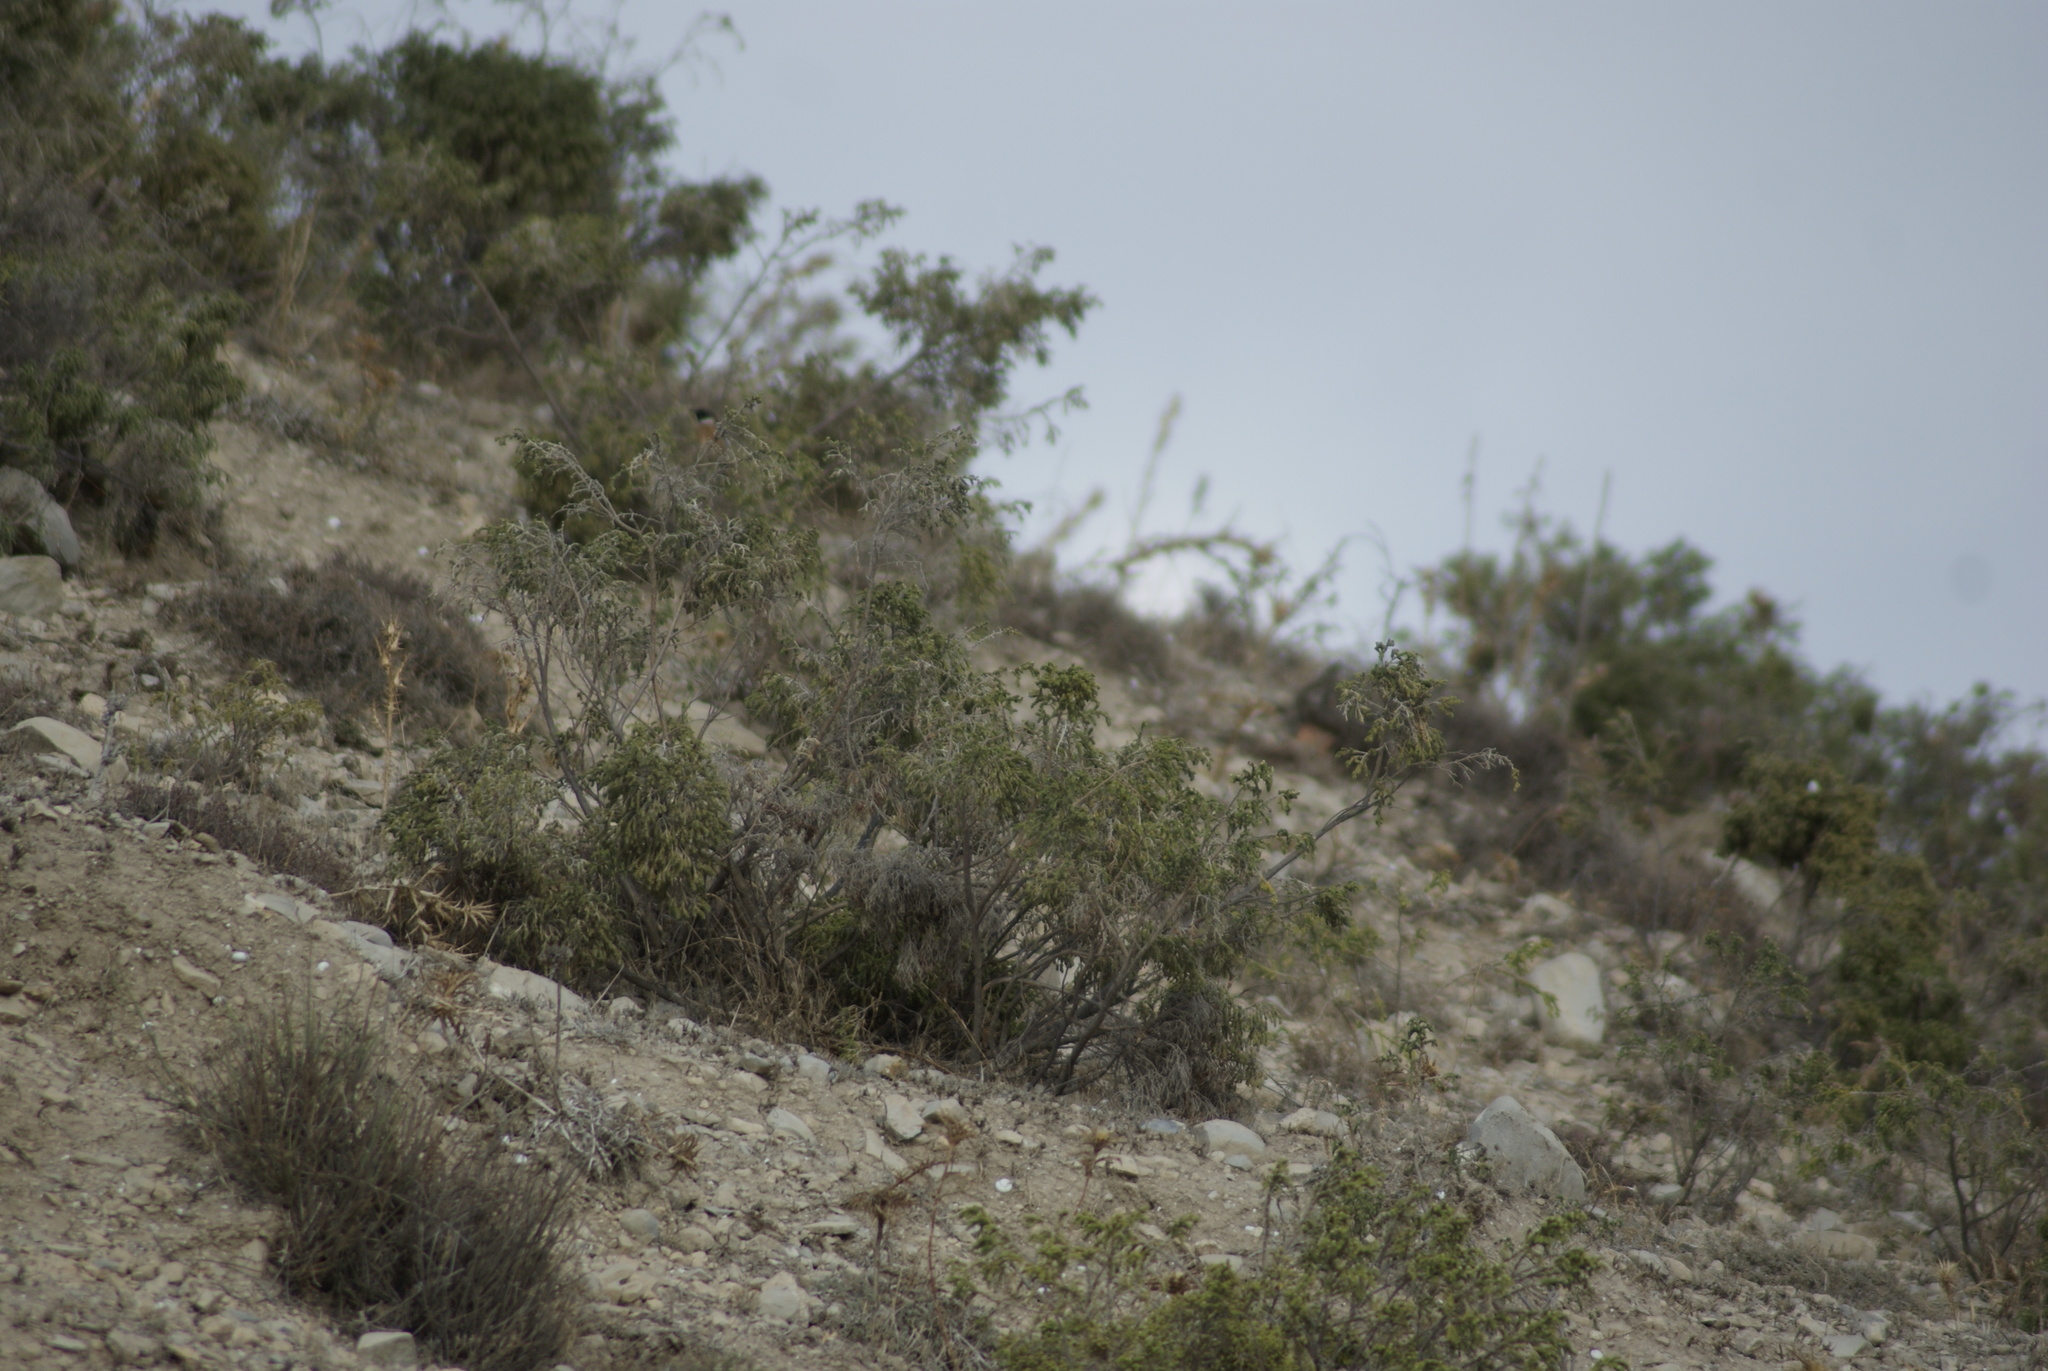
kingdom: Plantae
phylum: Tracheophyta
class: Magnoliopsida
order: Malvales
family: Thymelaeaceae
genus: Thymelaea
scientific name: Thymelaea hirsuta
